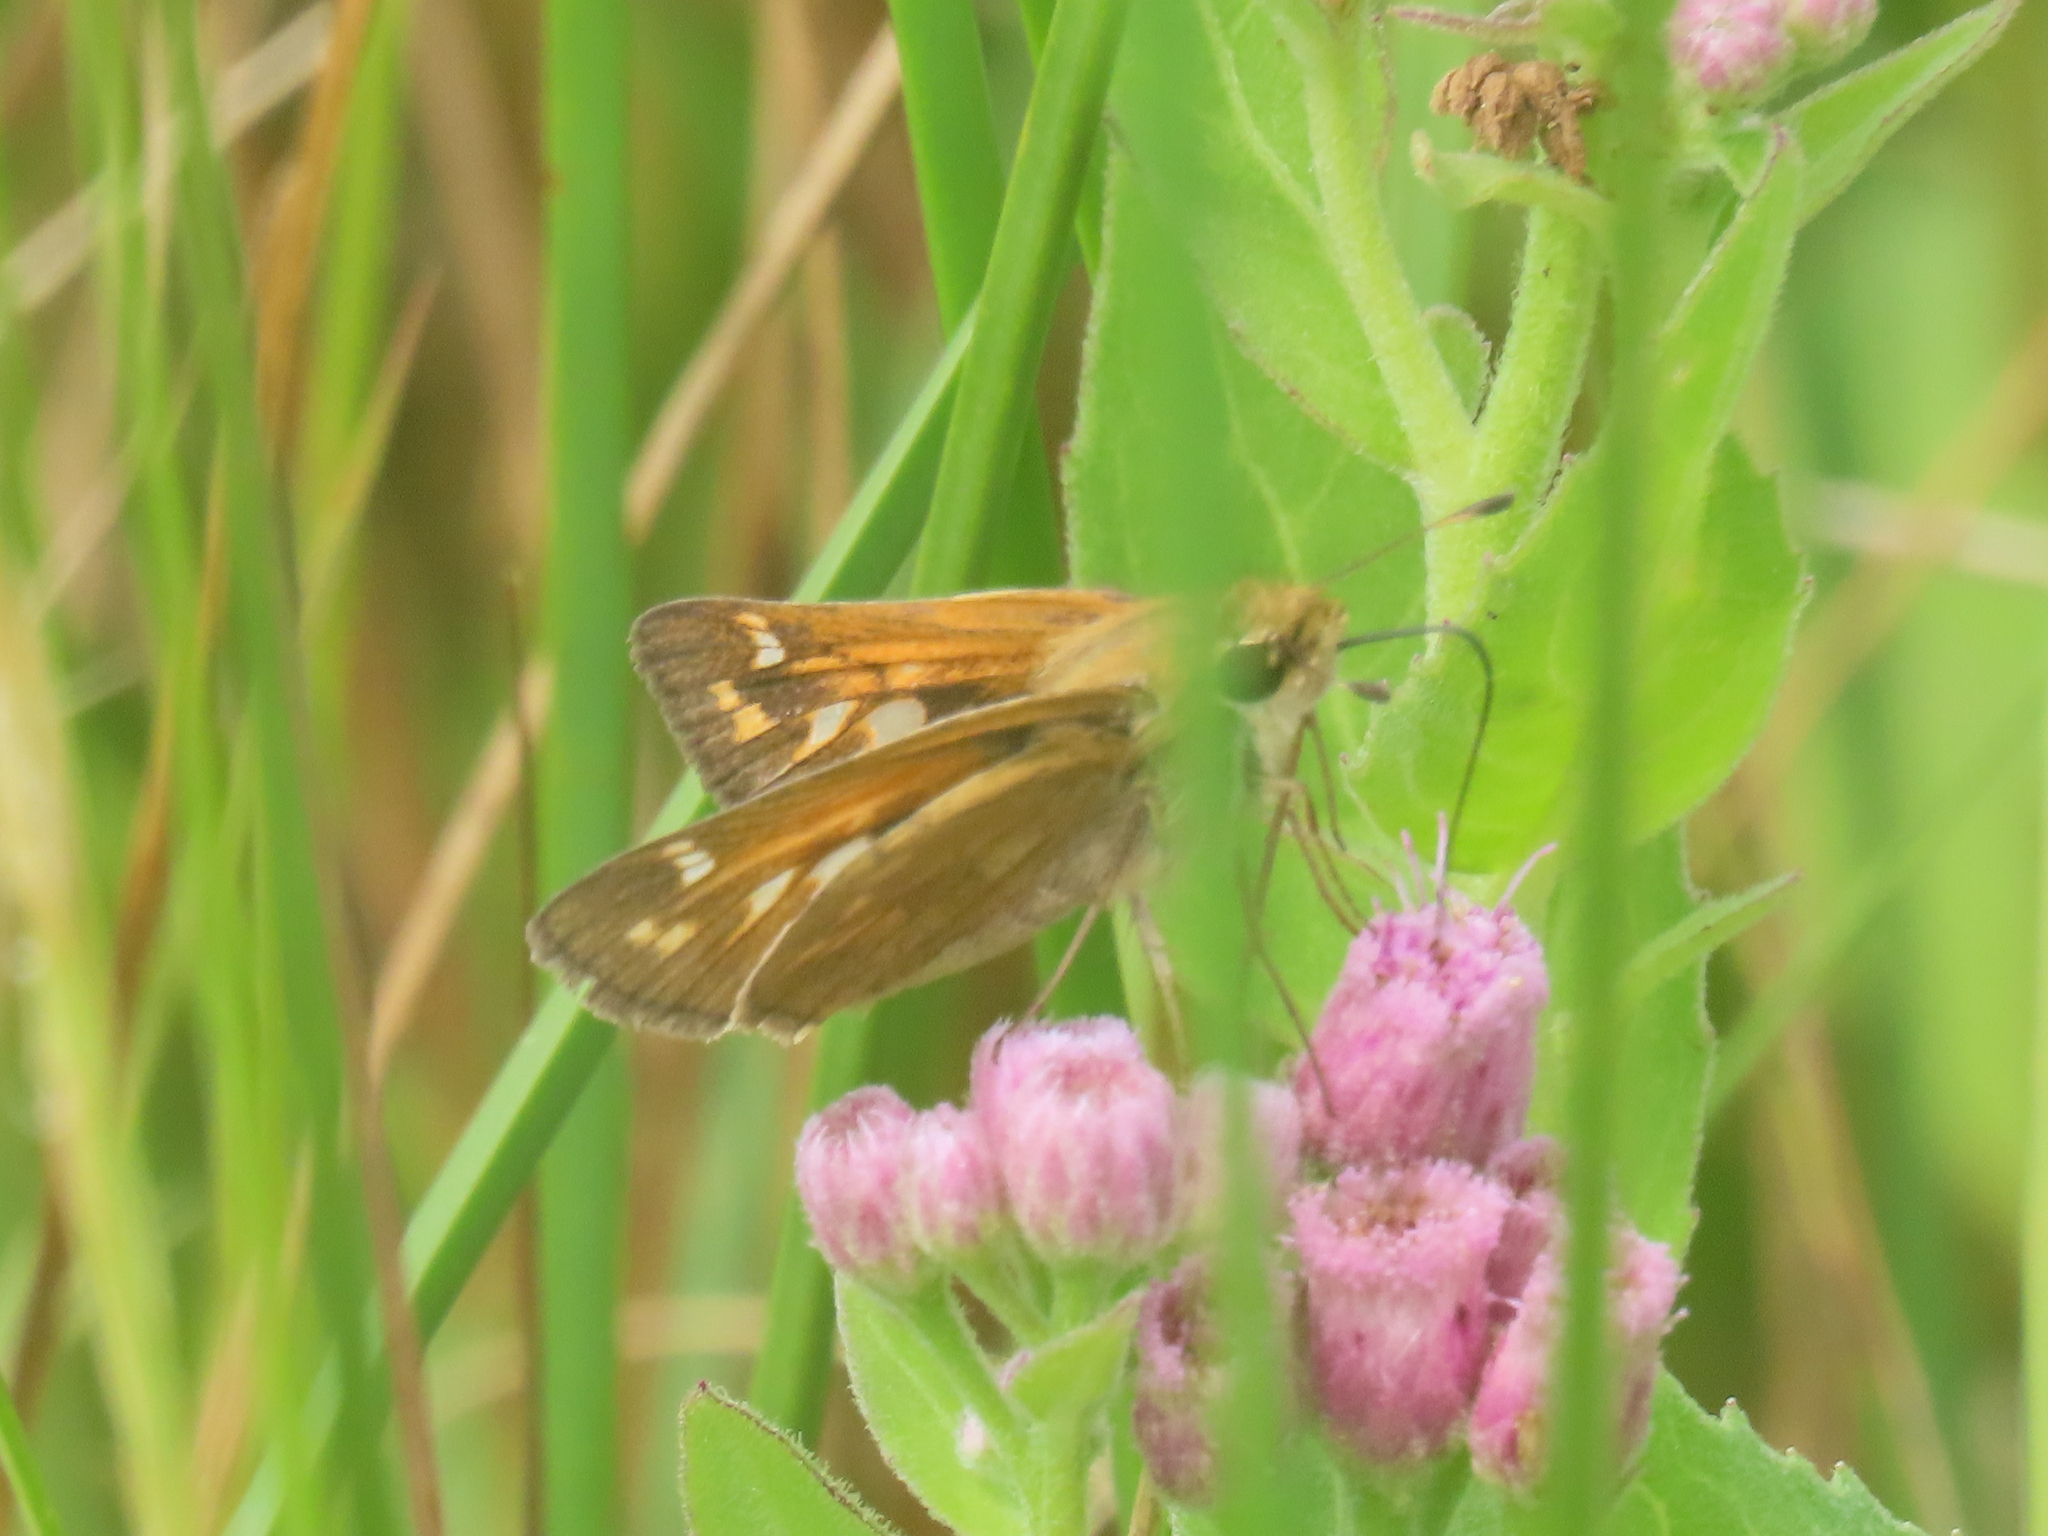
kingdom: Animalia
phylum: Arthropoda
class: Insecta
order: Lepidoptera
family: Hesperiidae
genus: Atalopedes
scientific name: Atalopedes
